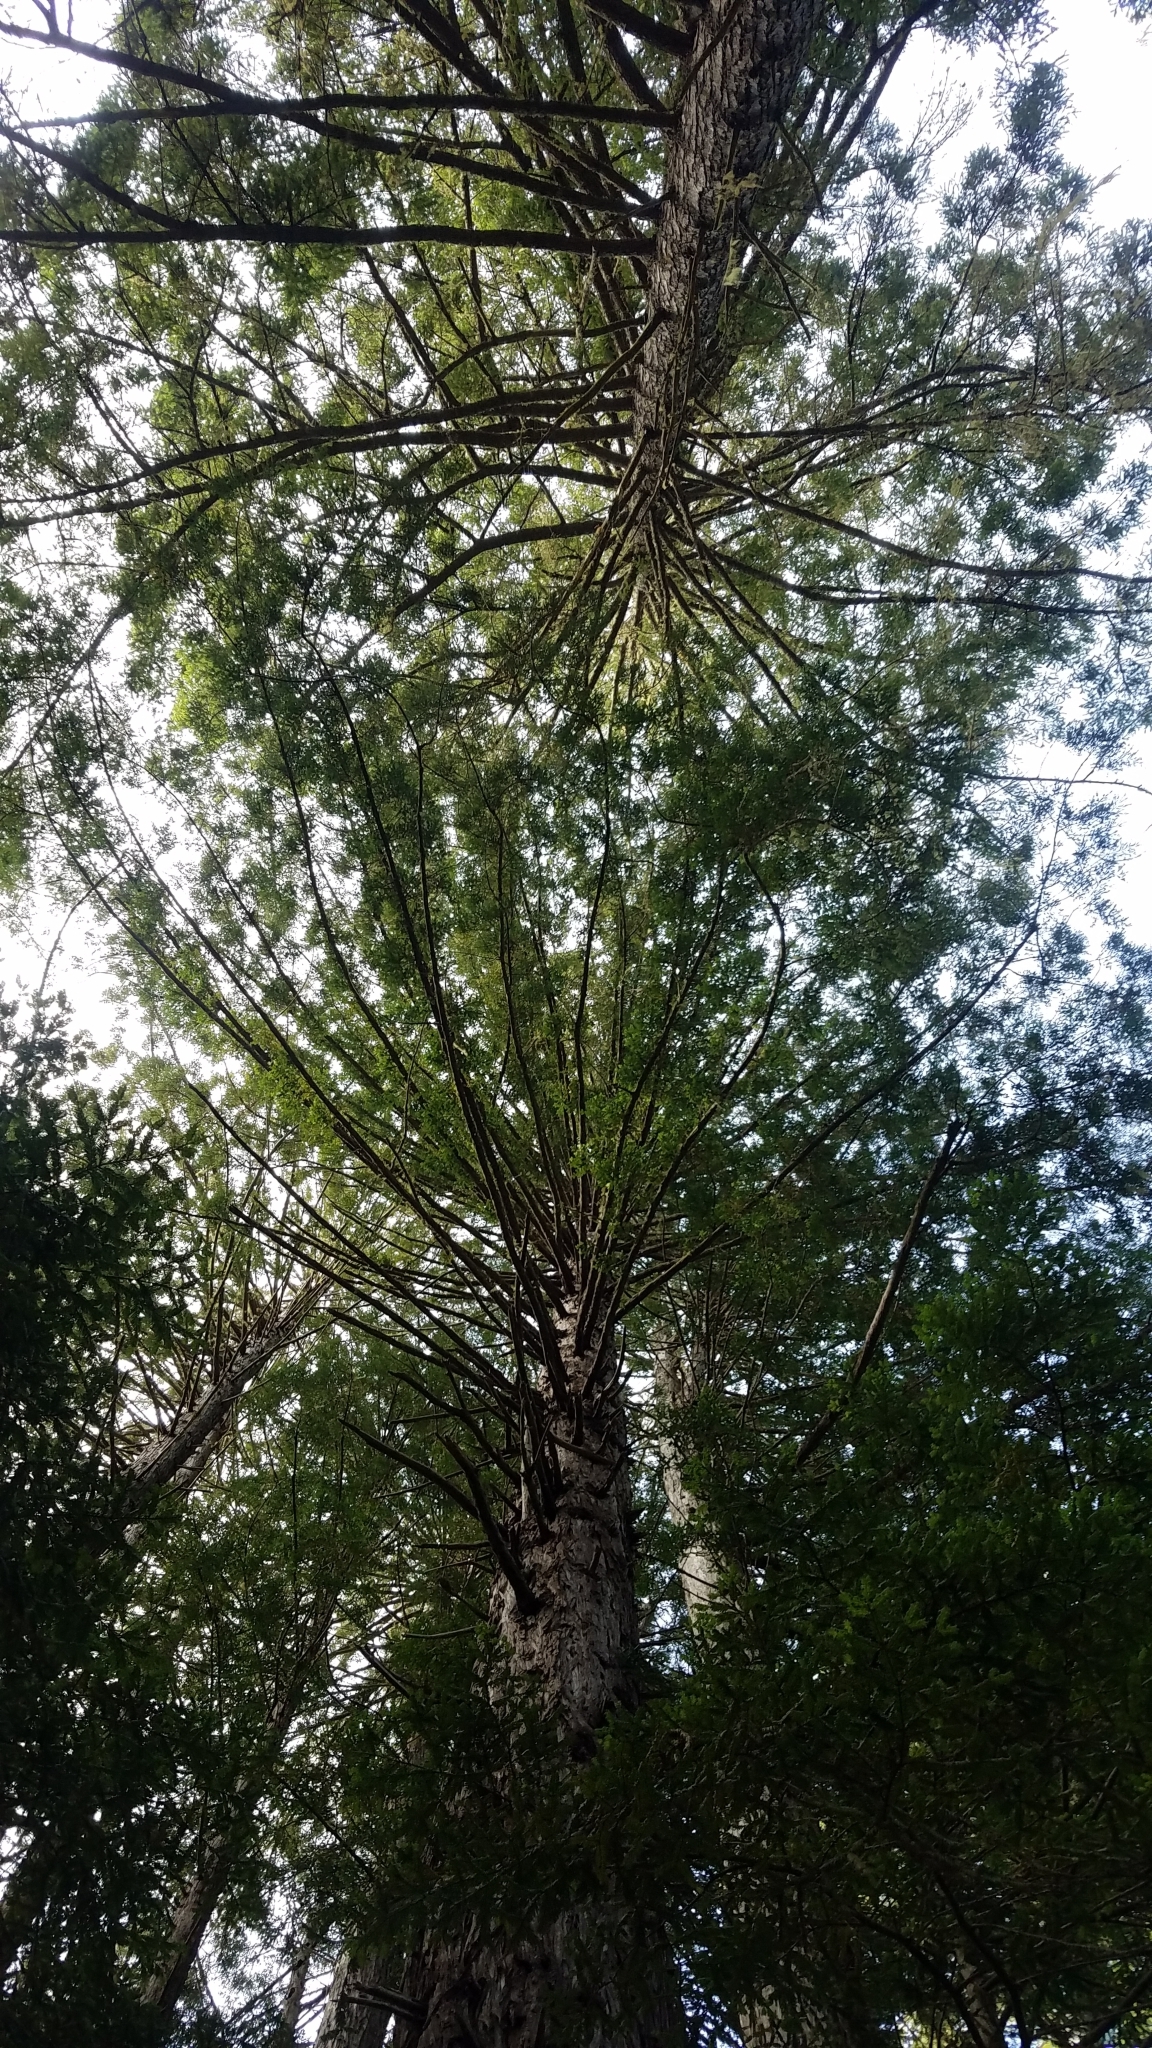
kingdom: Plantae
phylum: Tracheophyta
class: Pinopsida
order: Pinales
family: Cupressaceae
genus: Sequoia
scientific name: Sequoia sempervirens
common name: Coast redwood
